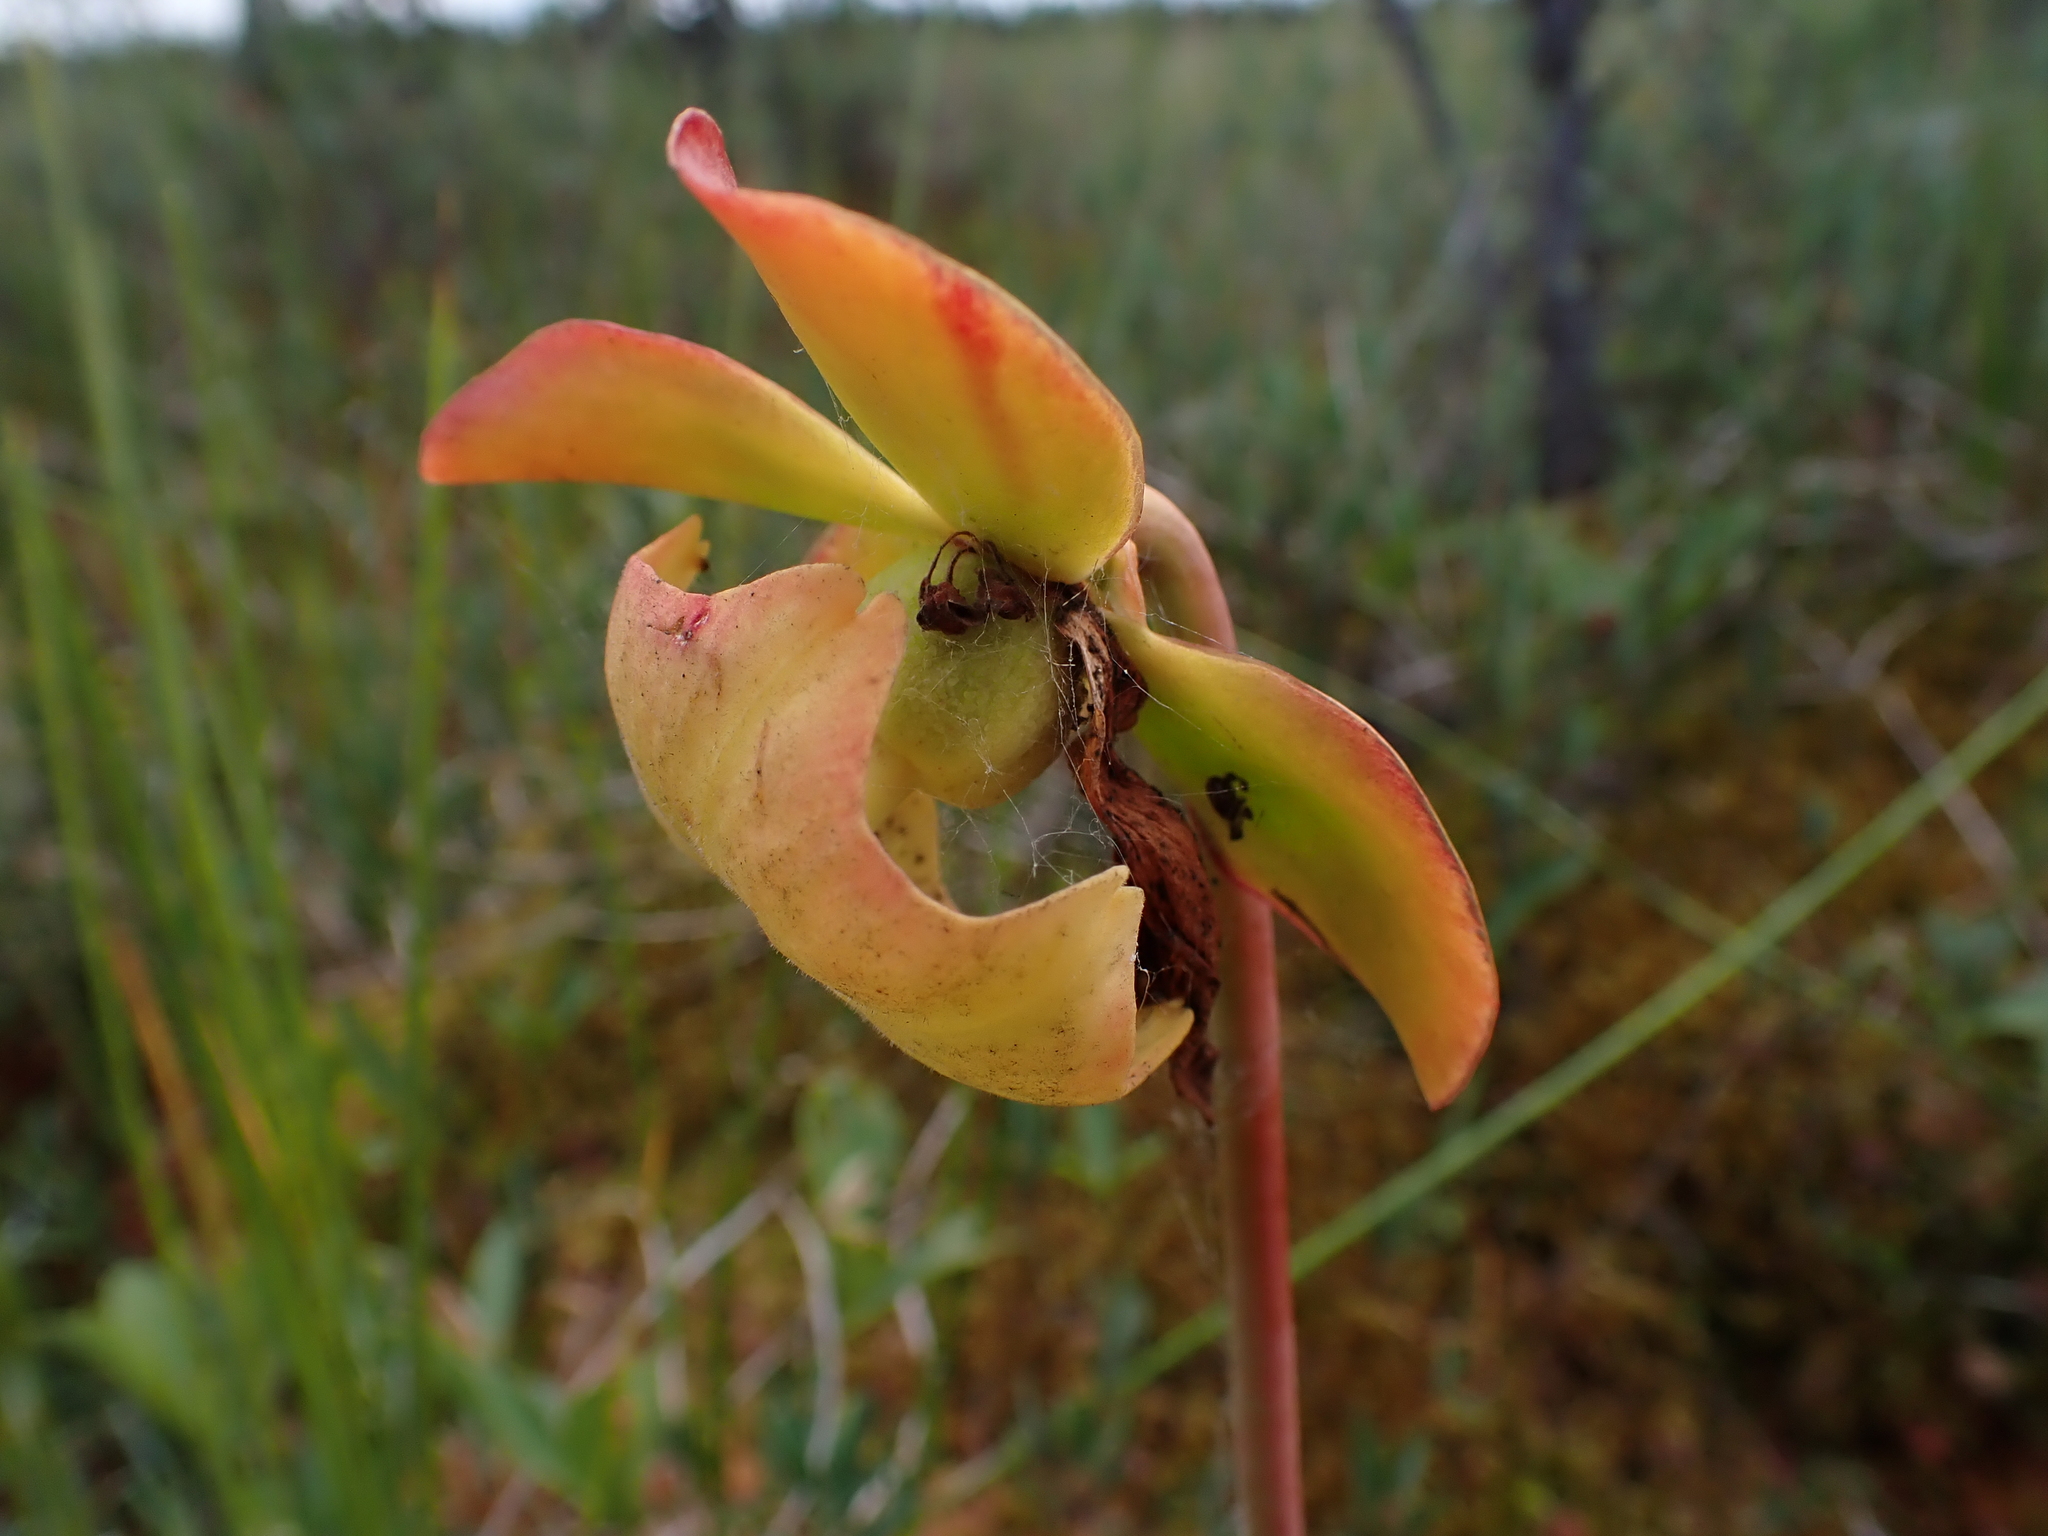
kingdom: Plantae
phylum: Tracheophyta
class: Magnoliopsida
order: Ericales
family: Sarraceniaceae
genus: Sarracenia
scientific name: Sarracenia purpurea
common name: Pitcherplant
